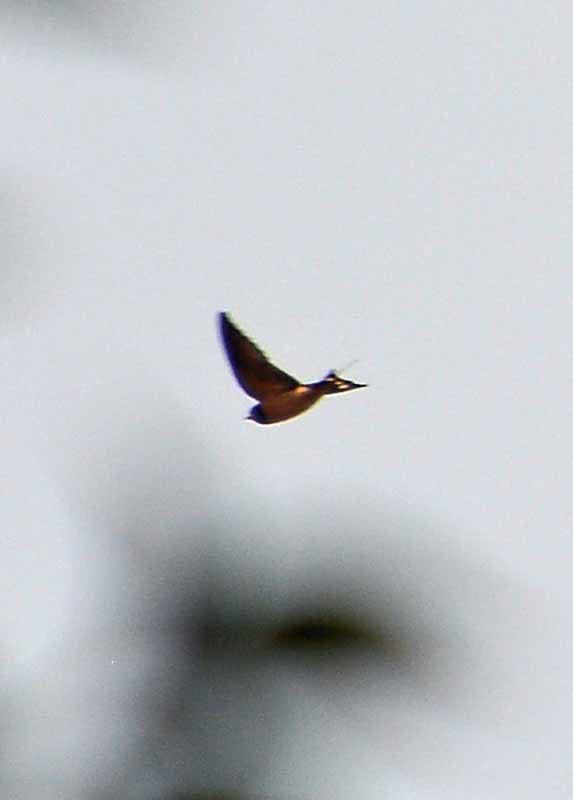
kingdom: Animalia
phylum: Chordata
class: Aves
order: Passeriformes
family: Hirundinidae
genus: Hirundo
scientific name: Hirundo rustica
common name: Barn swallow
